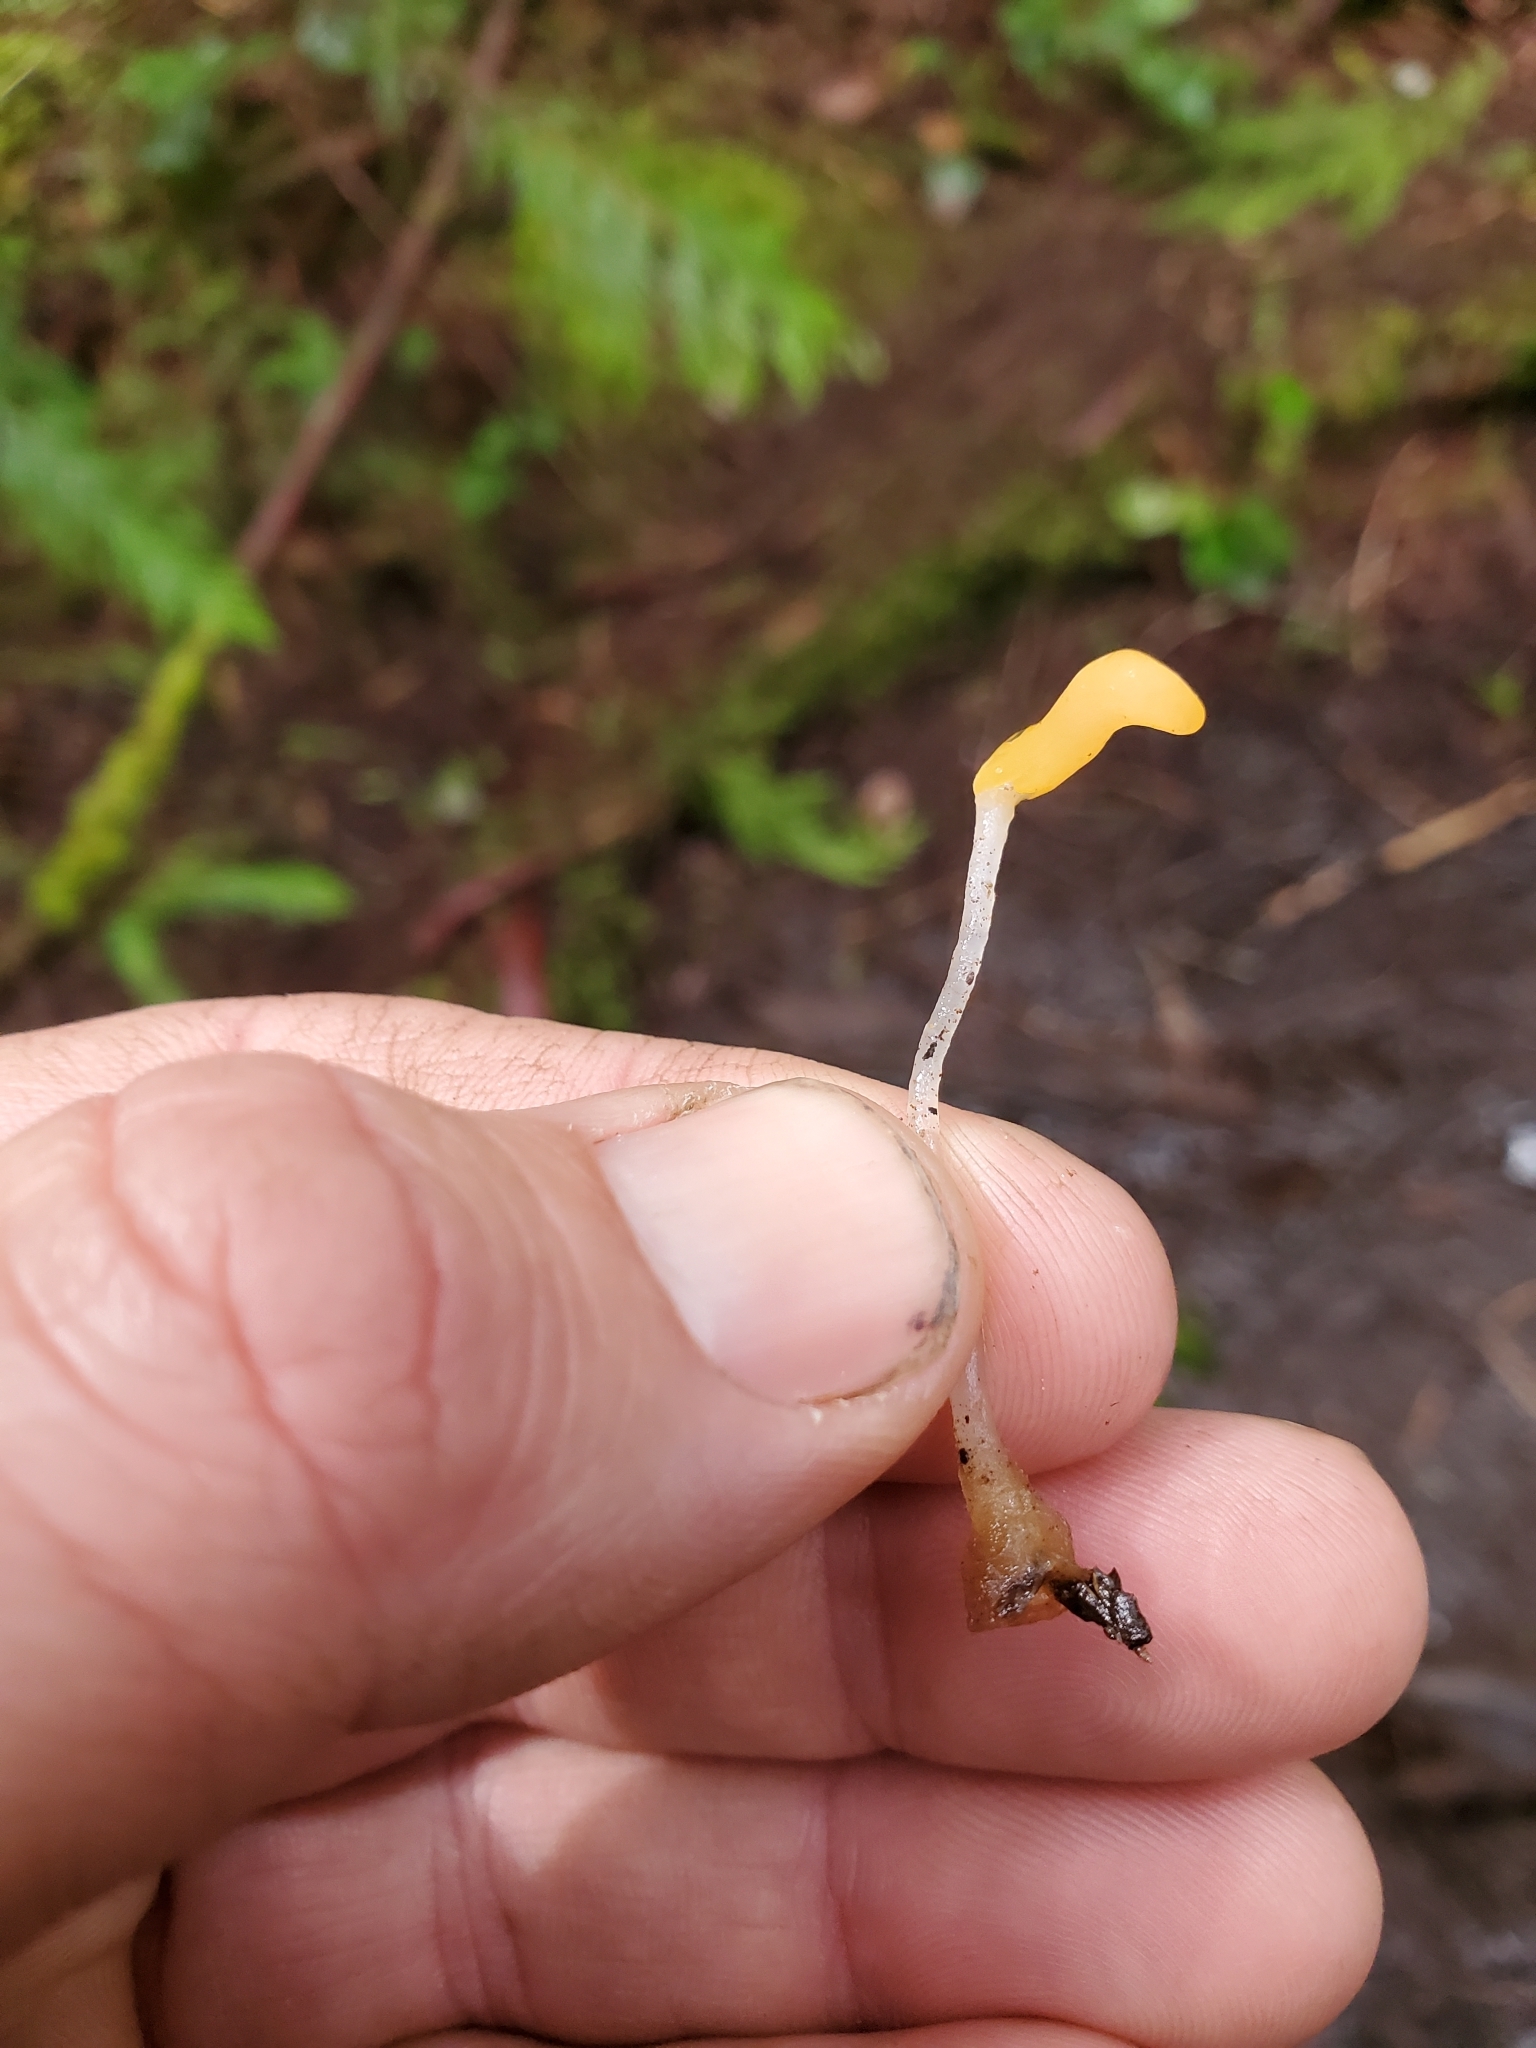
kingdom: Fungi
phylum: Ascomycota
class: Leotiomycetes
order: Helotiales
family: Sclerotiniaceae
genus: Mitrula
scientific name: Mitrula elegans
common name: Swamp beacon
